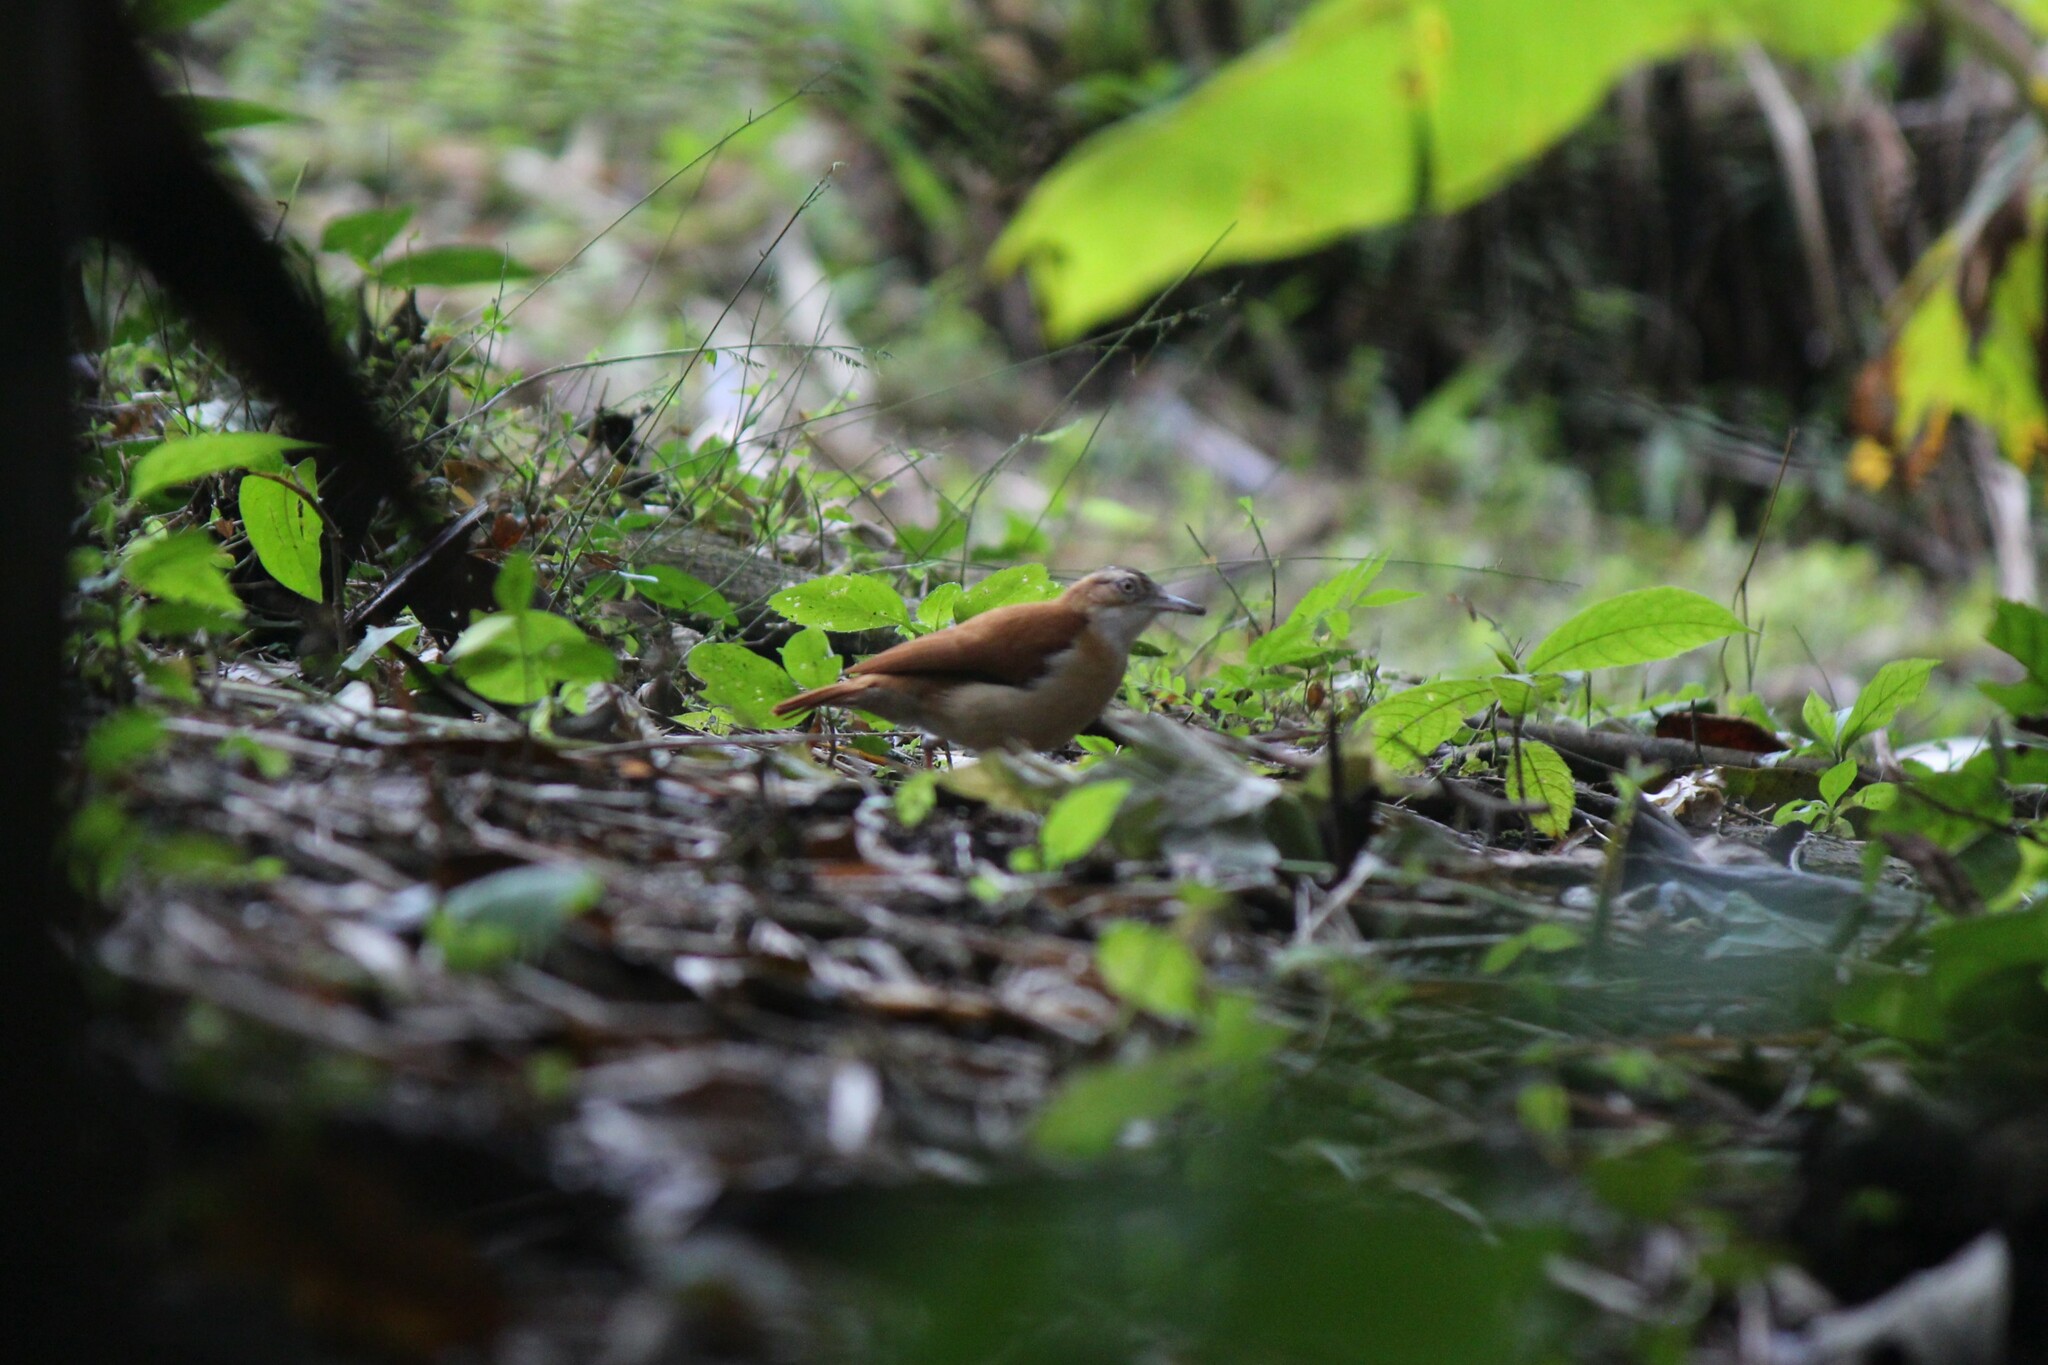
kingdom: Animalia
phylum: Chordata
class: Aves
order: Passeriformes
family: Furnariidae
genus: Furnarius
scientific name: Furnarius leucopus
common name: Pale-legged hornero
